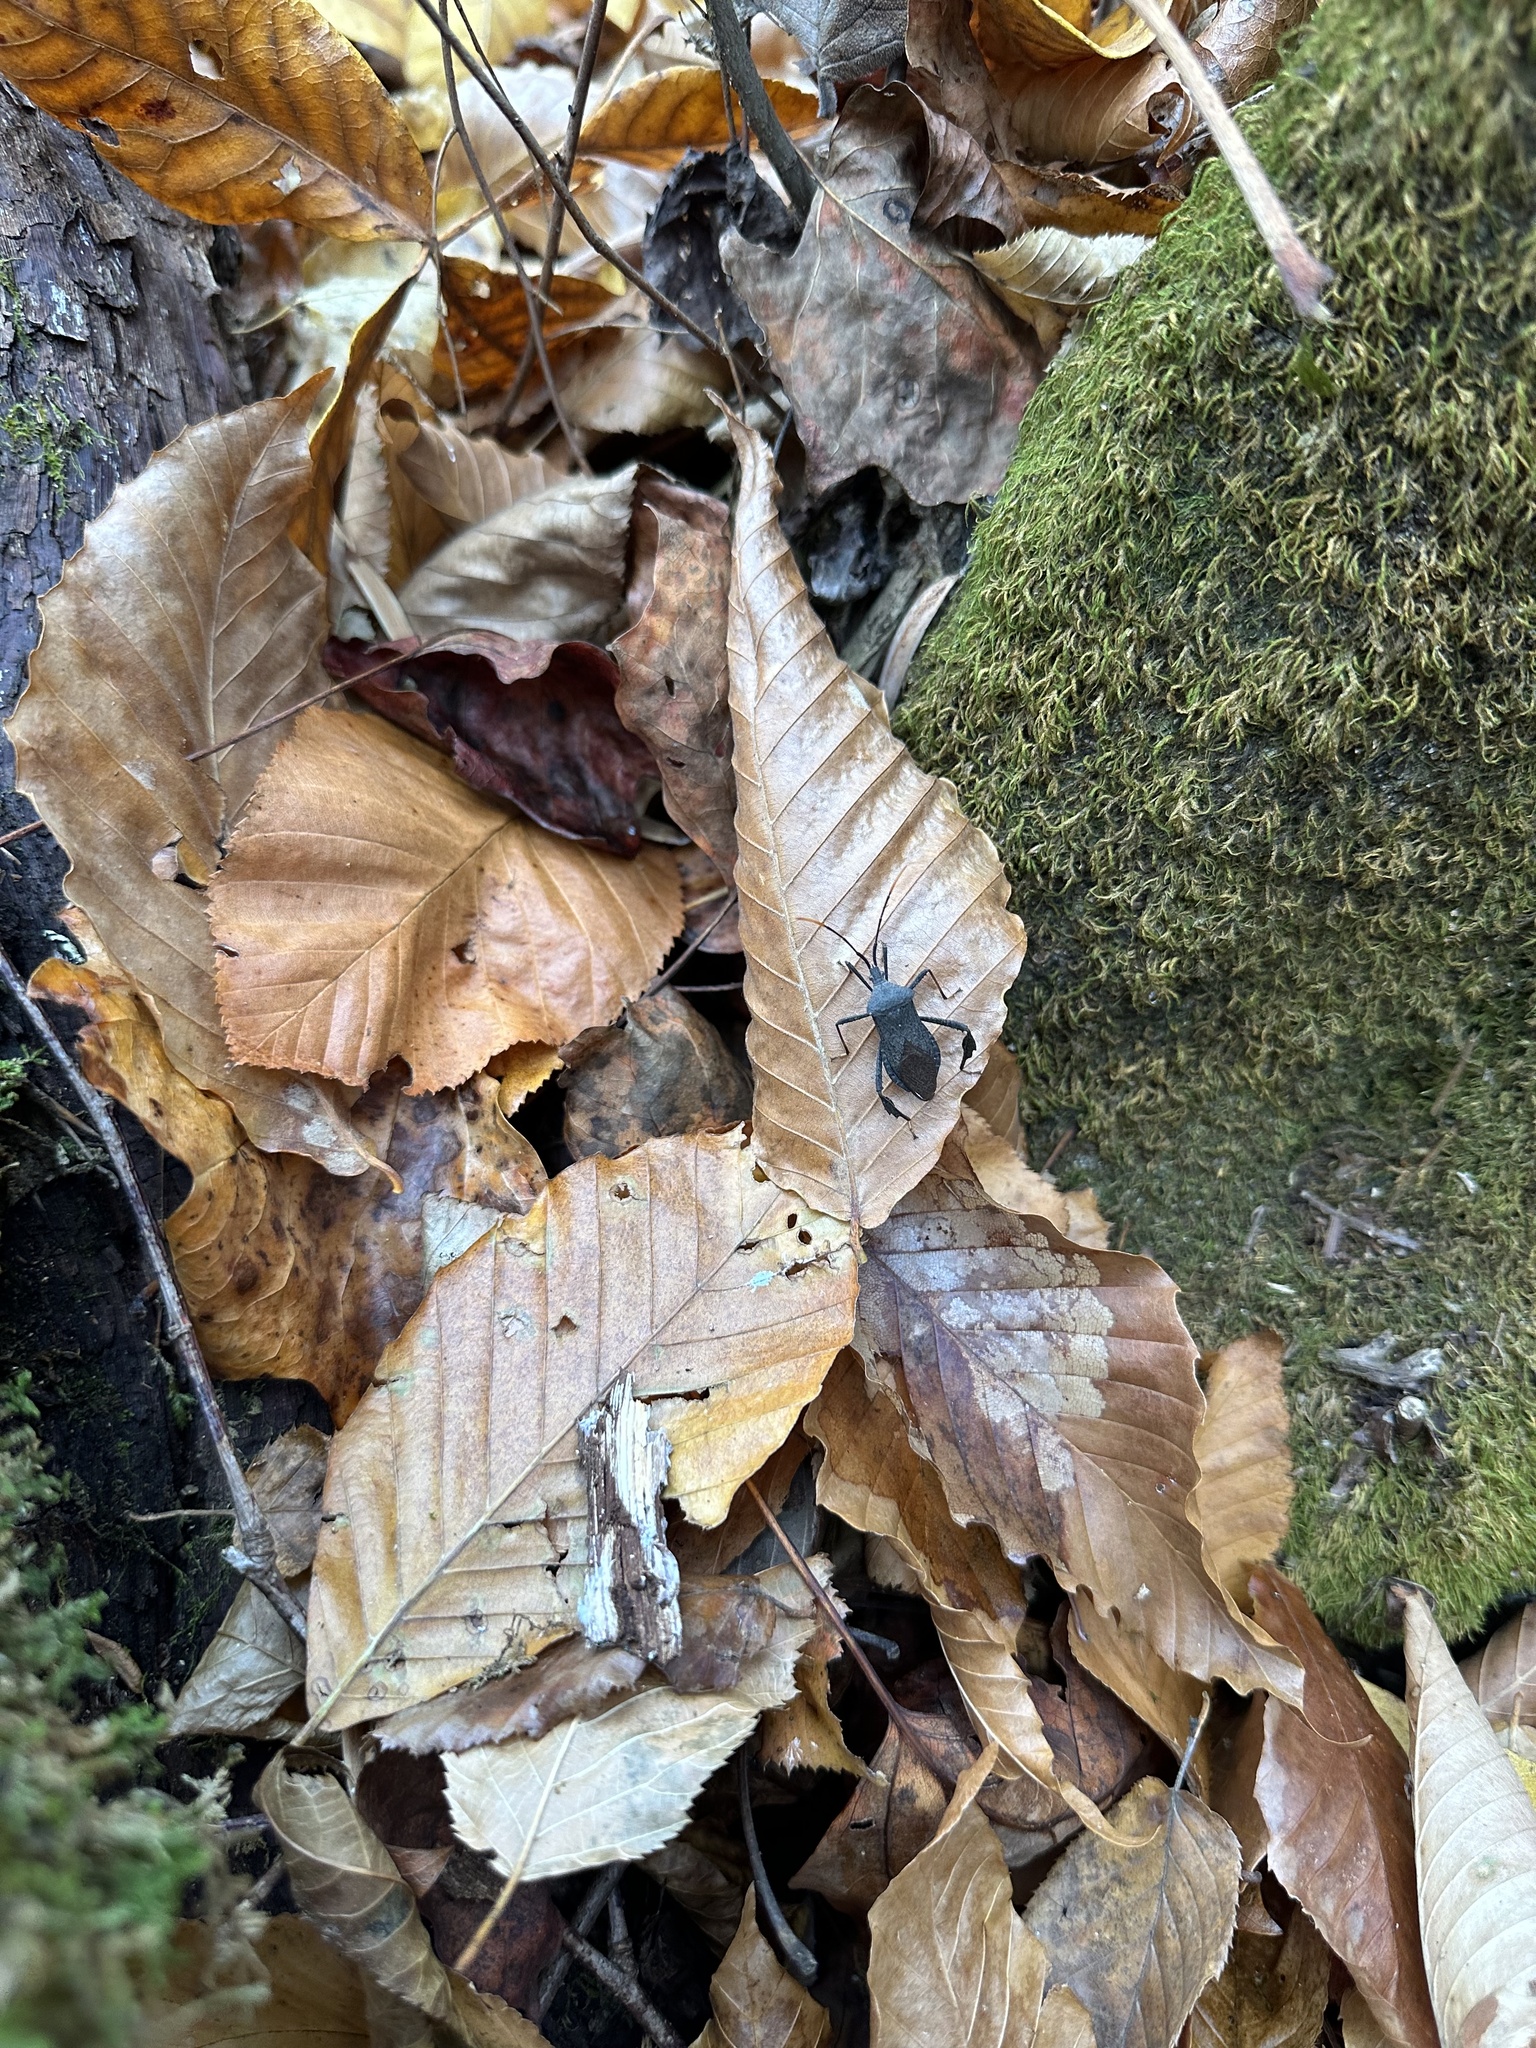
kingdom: Animalia
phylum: Arthropoda
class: Insecta
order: Hemiptera
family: Coreidae
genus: Acanthocephala
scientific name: Acanthocephala terminalis
